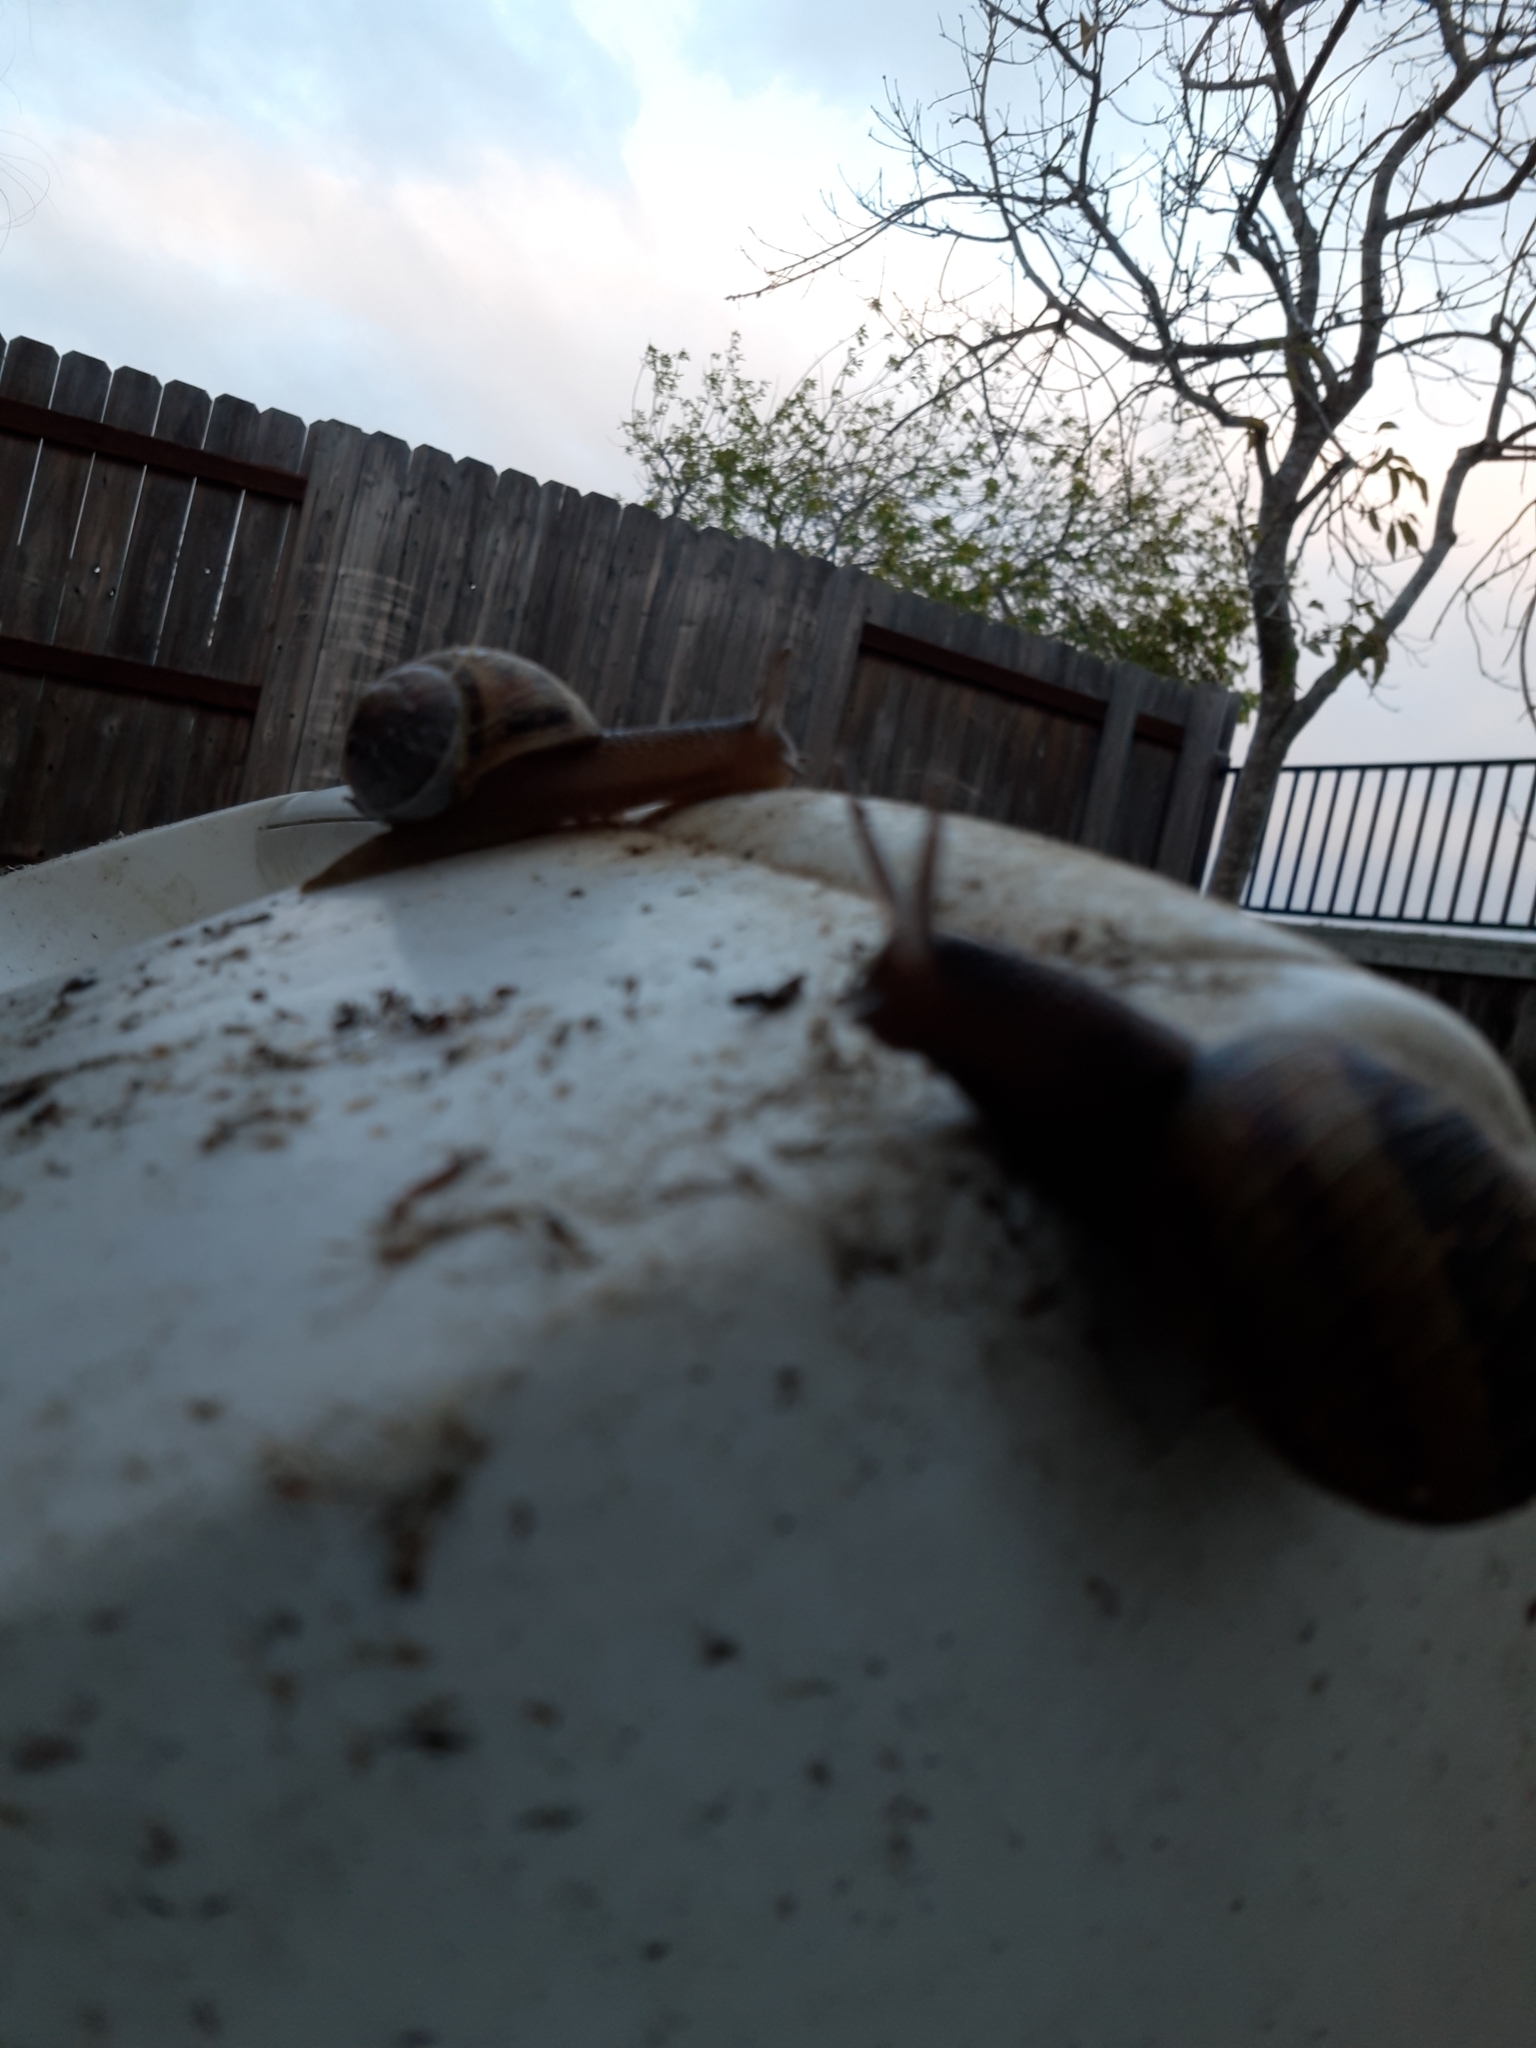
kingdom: Animalia
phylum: Mollusca
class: Gastropoda
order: Stylommatophora
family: Helicidae
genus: Cornu
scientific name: Cornu aspersum
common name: Brown garden snail
